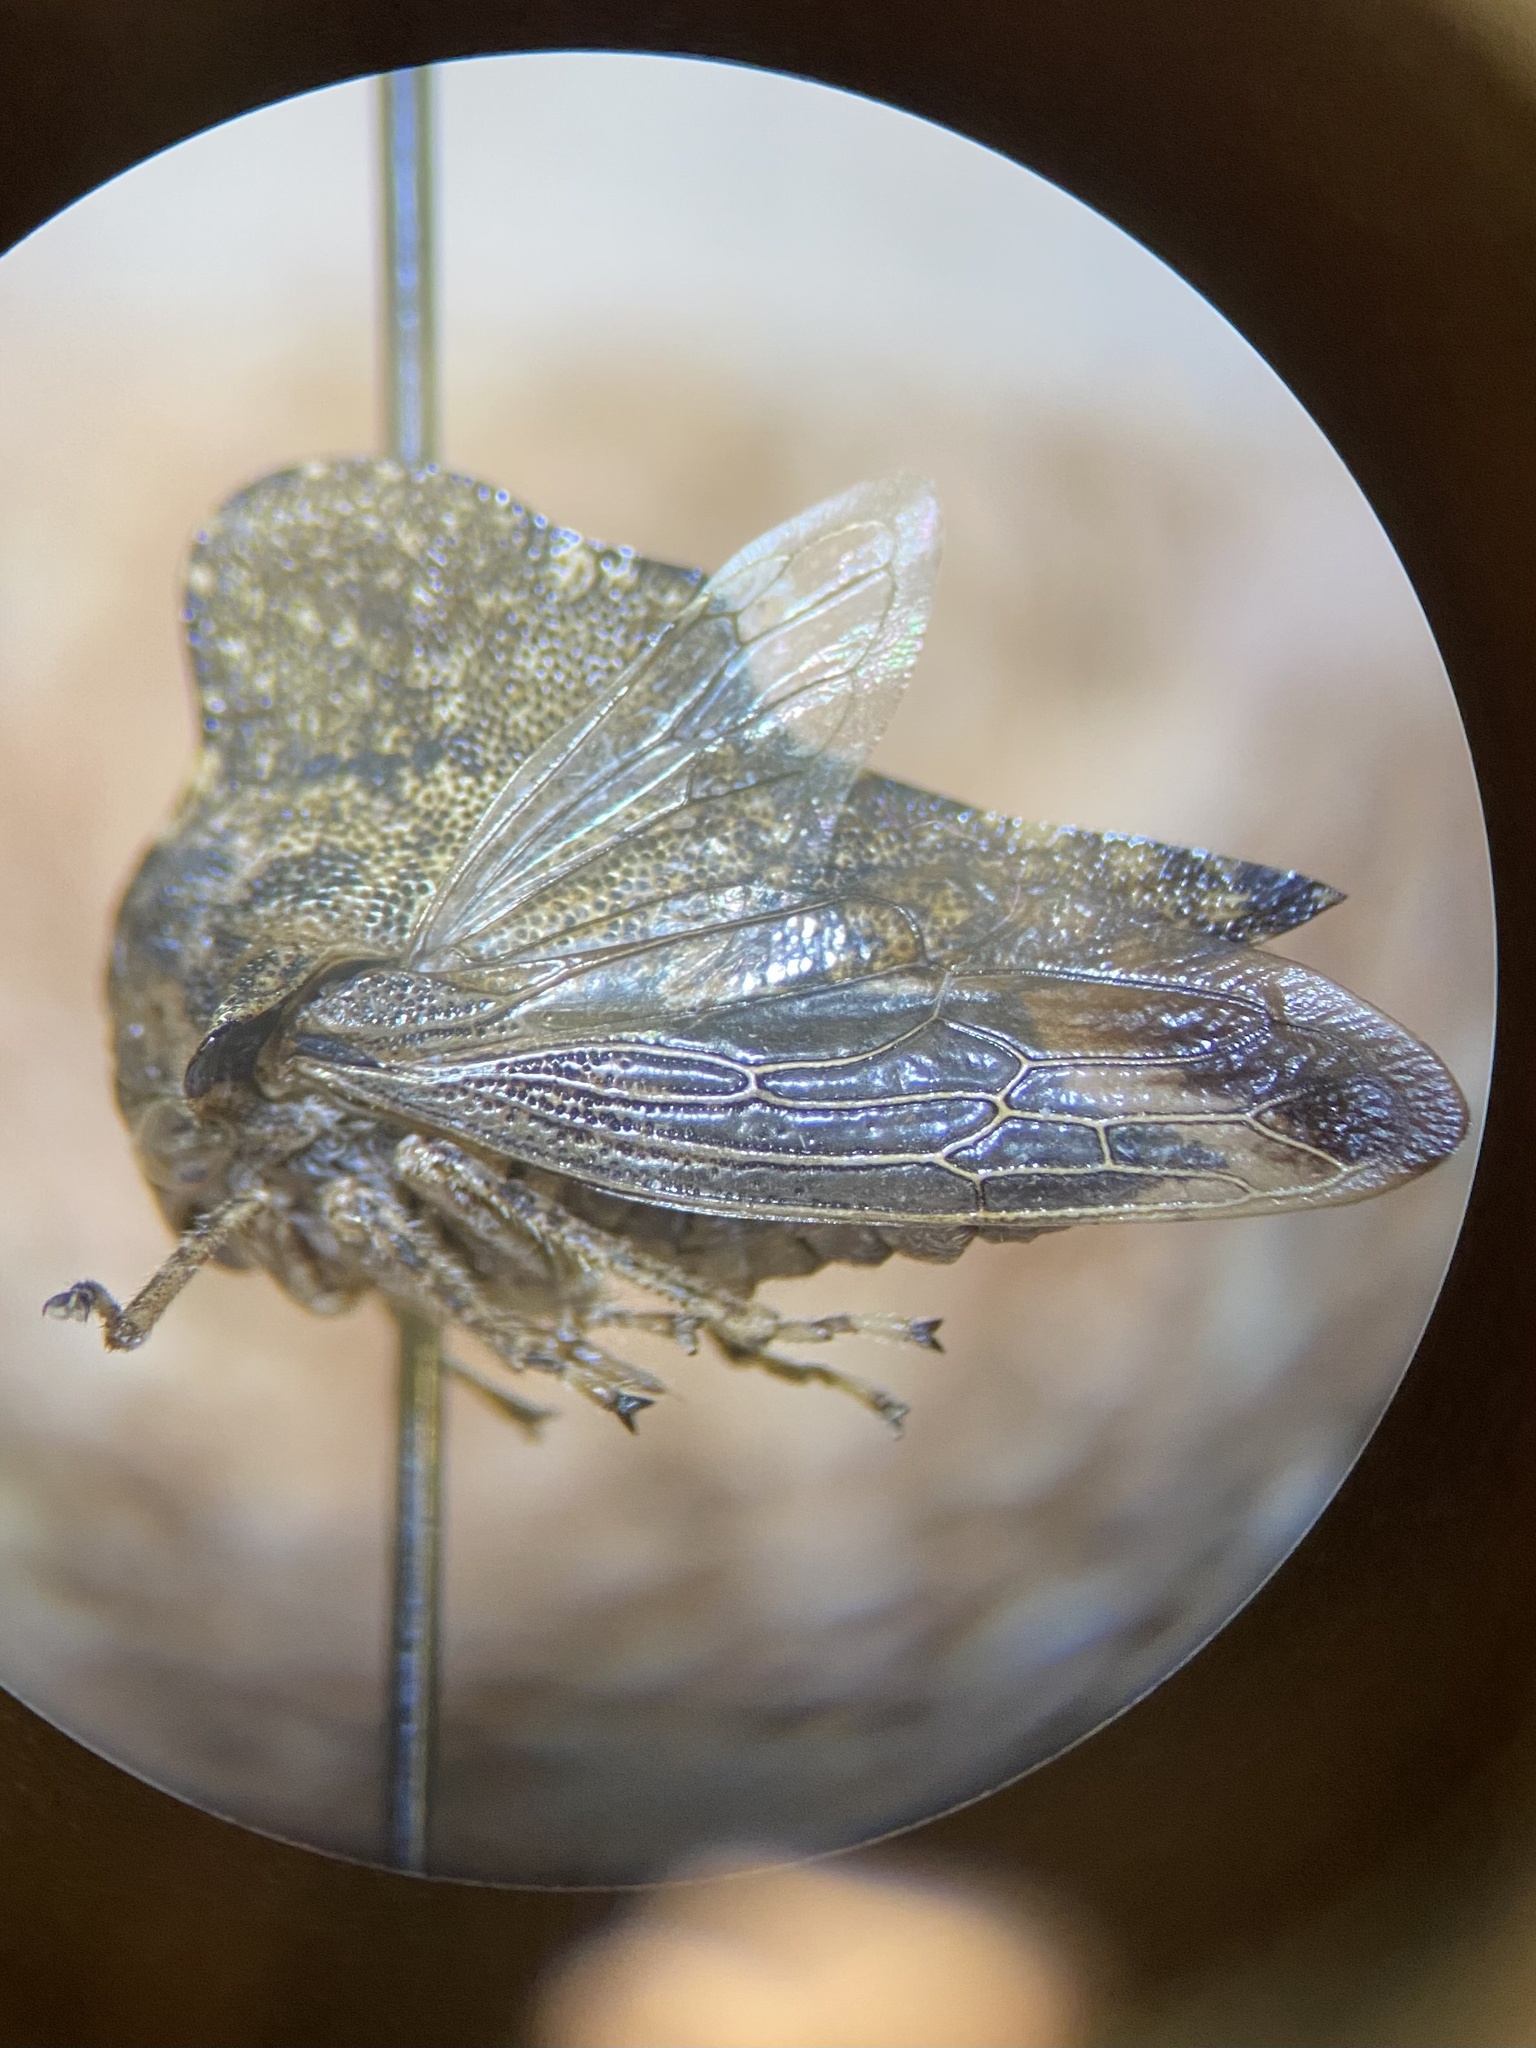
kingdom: Animalia
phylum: Arthropoda
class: Insecta
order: Hemiptera
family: Membracidae
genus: Heliria
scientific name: Heliria cornutula
